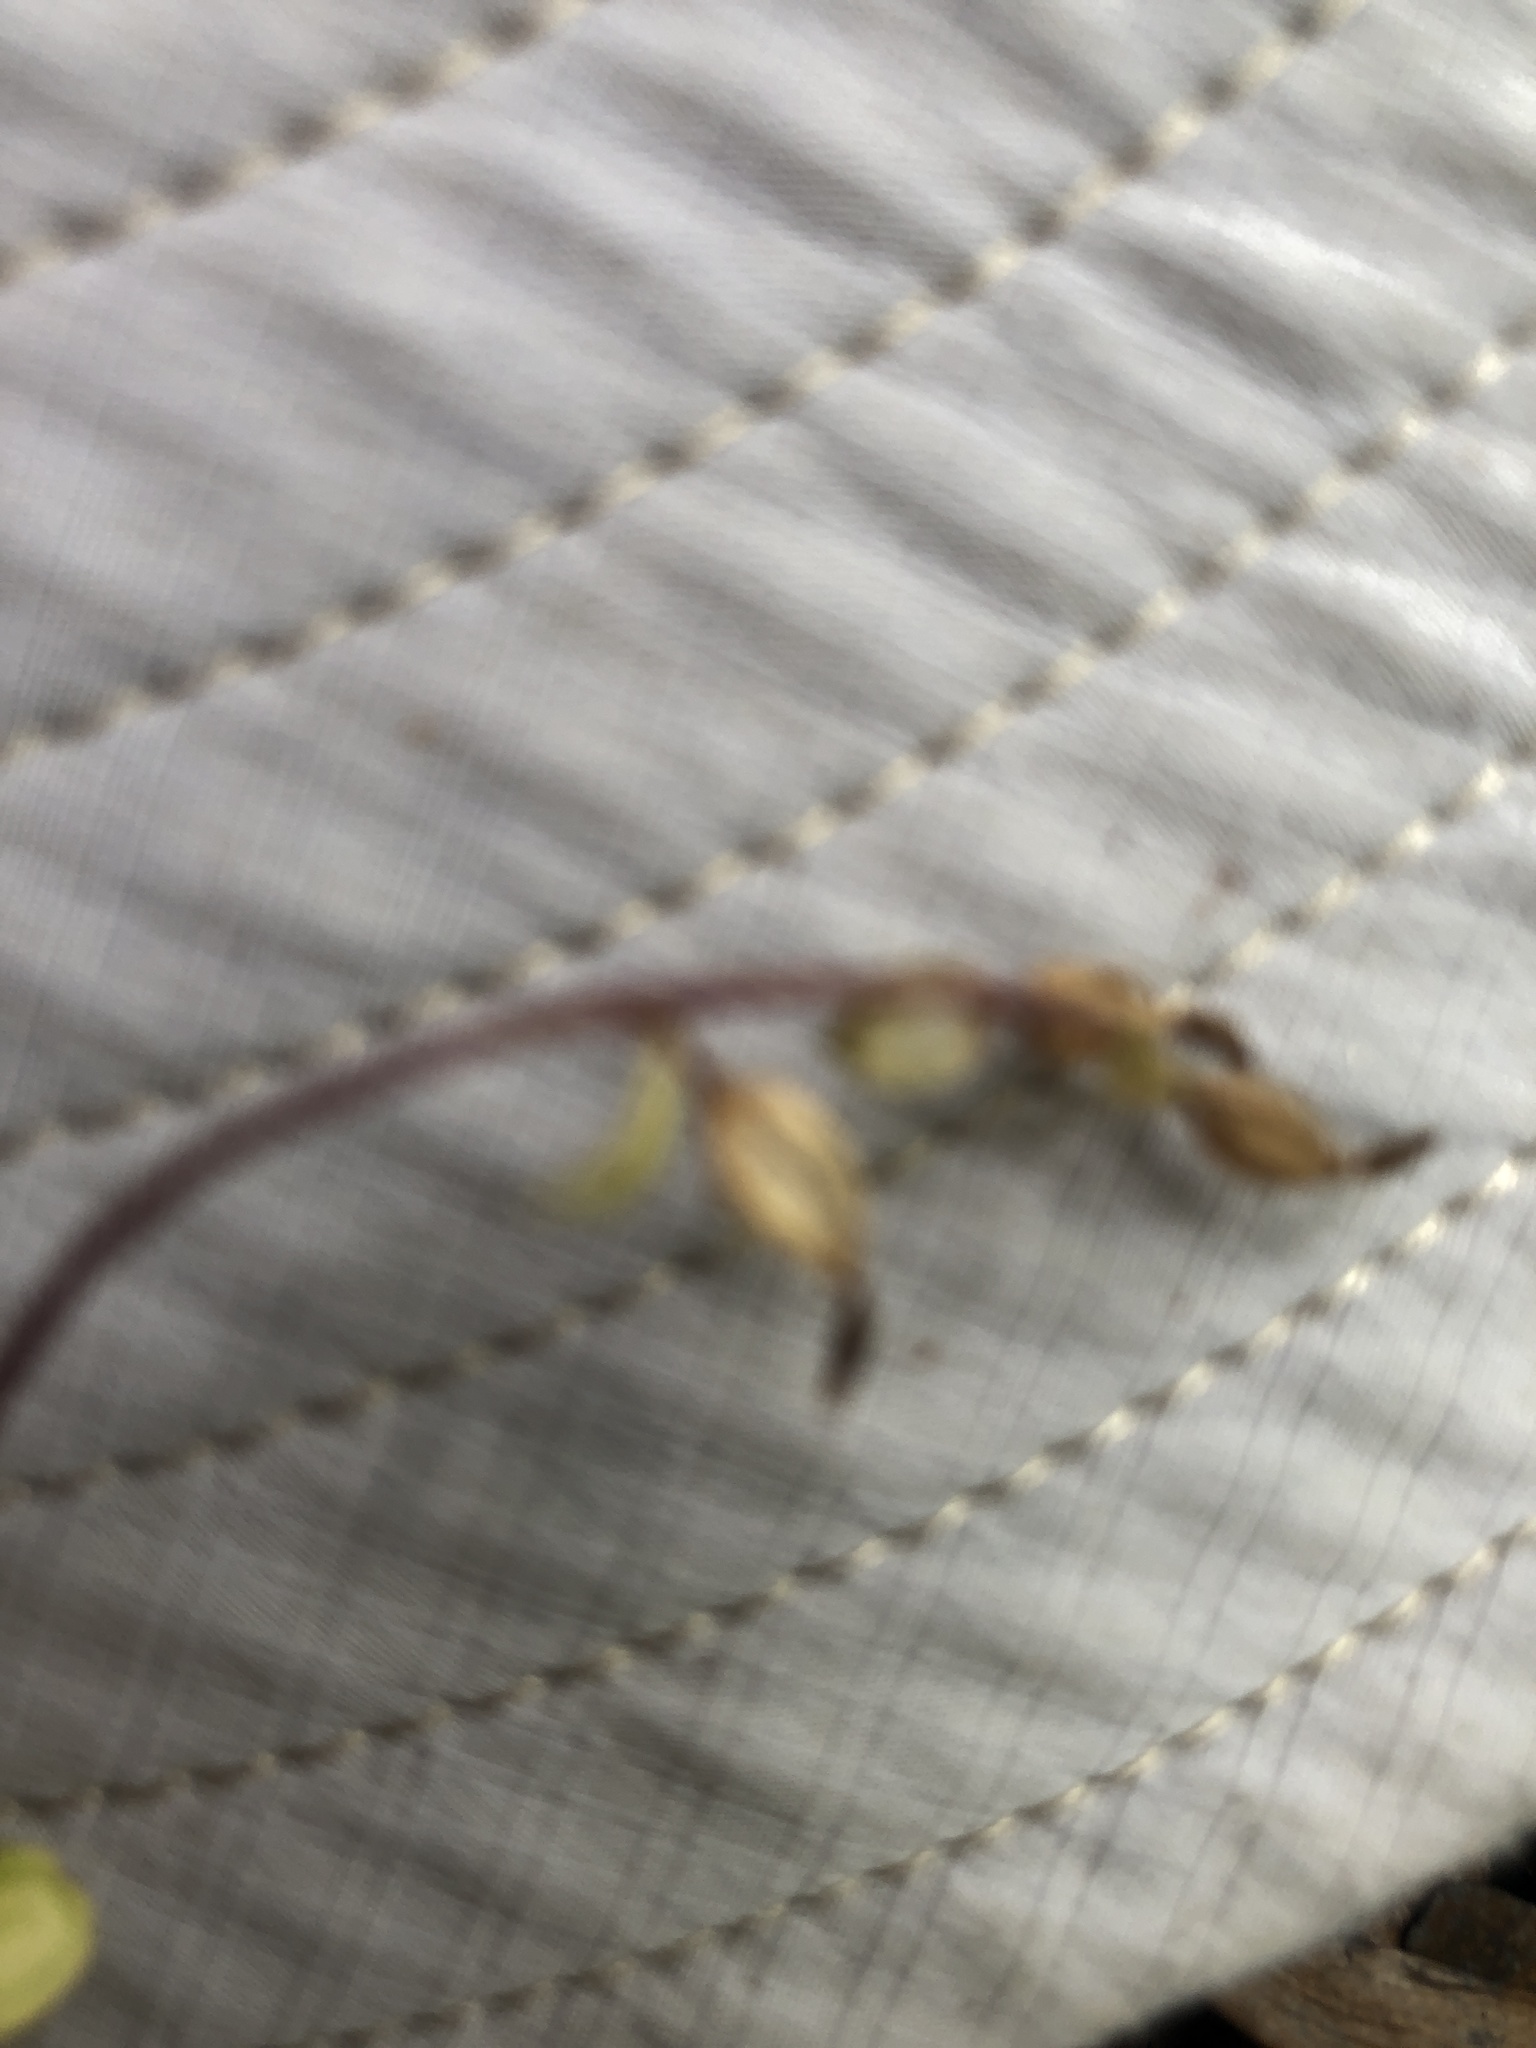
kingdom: Plantae
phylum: Tracheophyta
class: Liliopsida
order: Asparagales
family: Orchidaceae
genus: Acianthus
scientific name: Acianthus sinclairii
